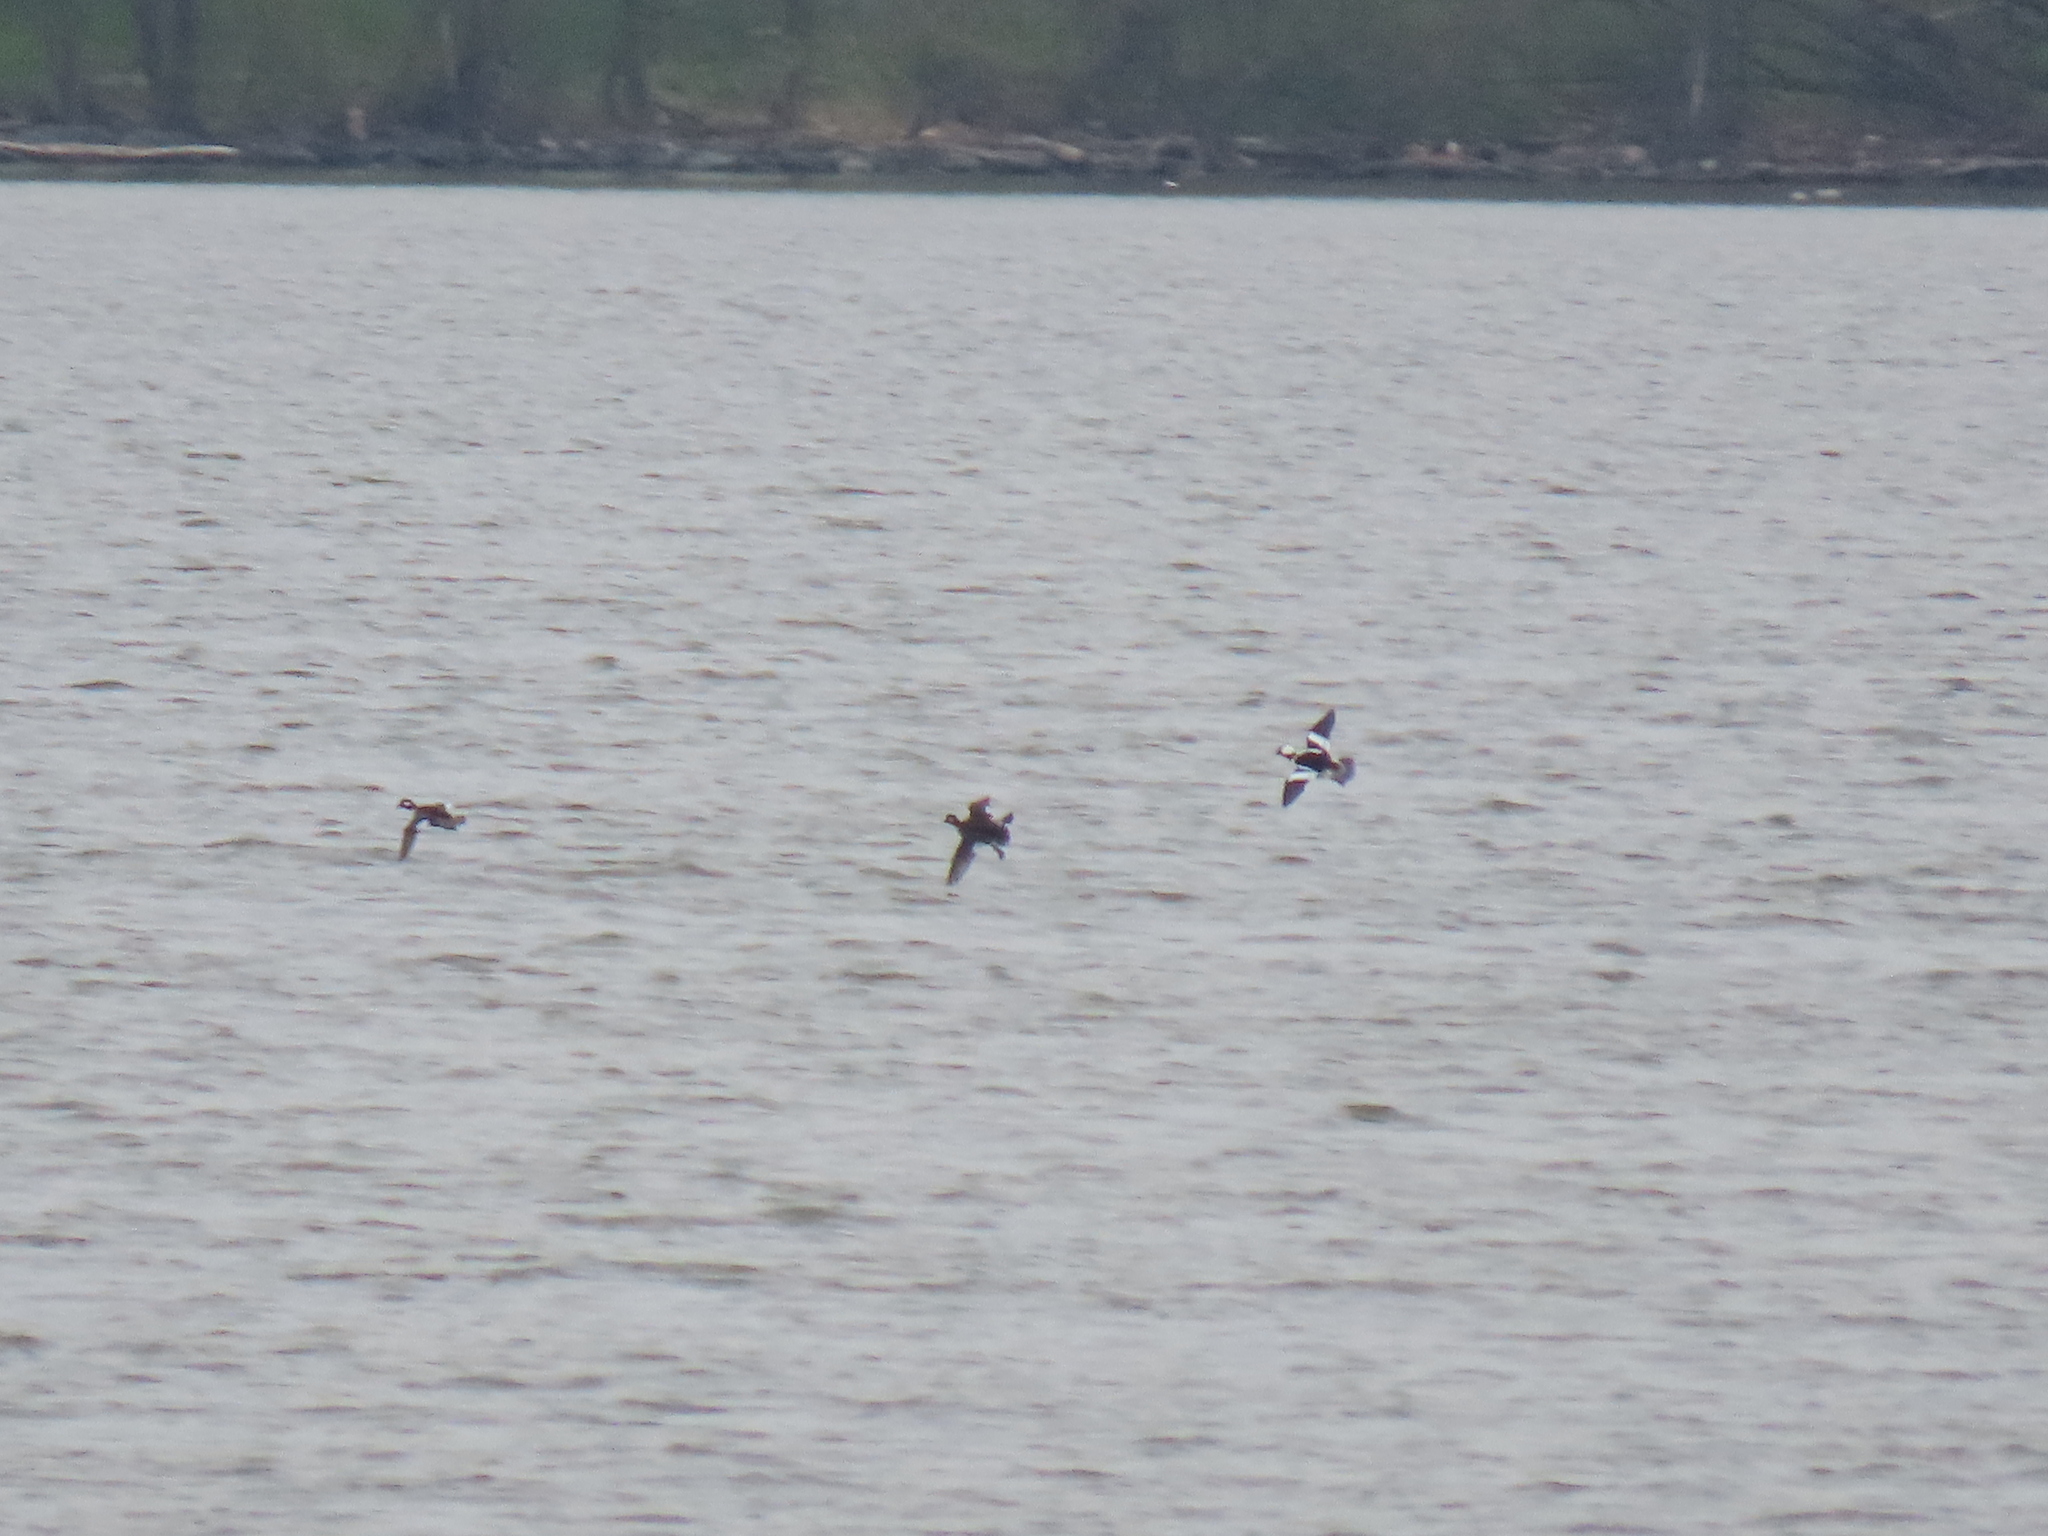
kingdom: Animalia
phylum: Chordata
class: Aves
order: Anseriformes
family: Anatidae
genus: Bucephala
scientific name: Bucephala albeola
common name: Bufflehead
